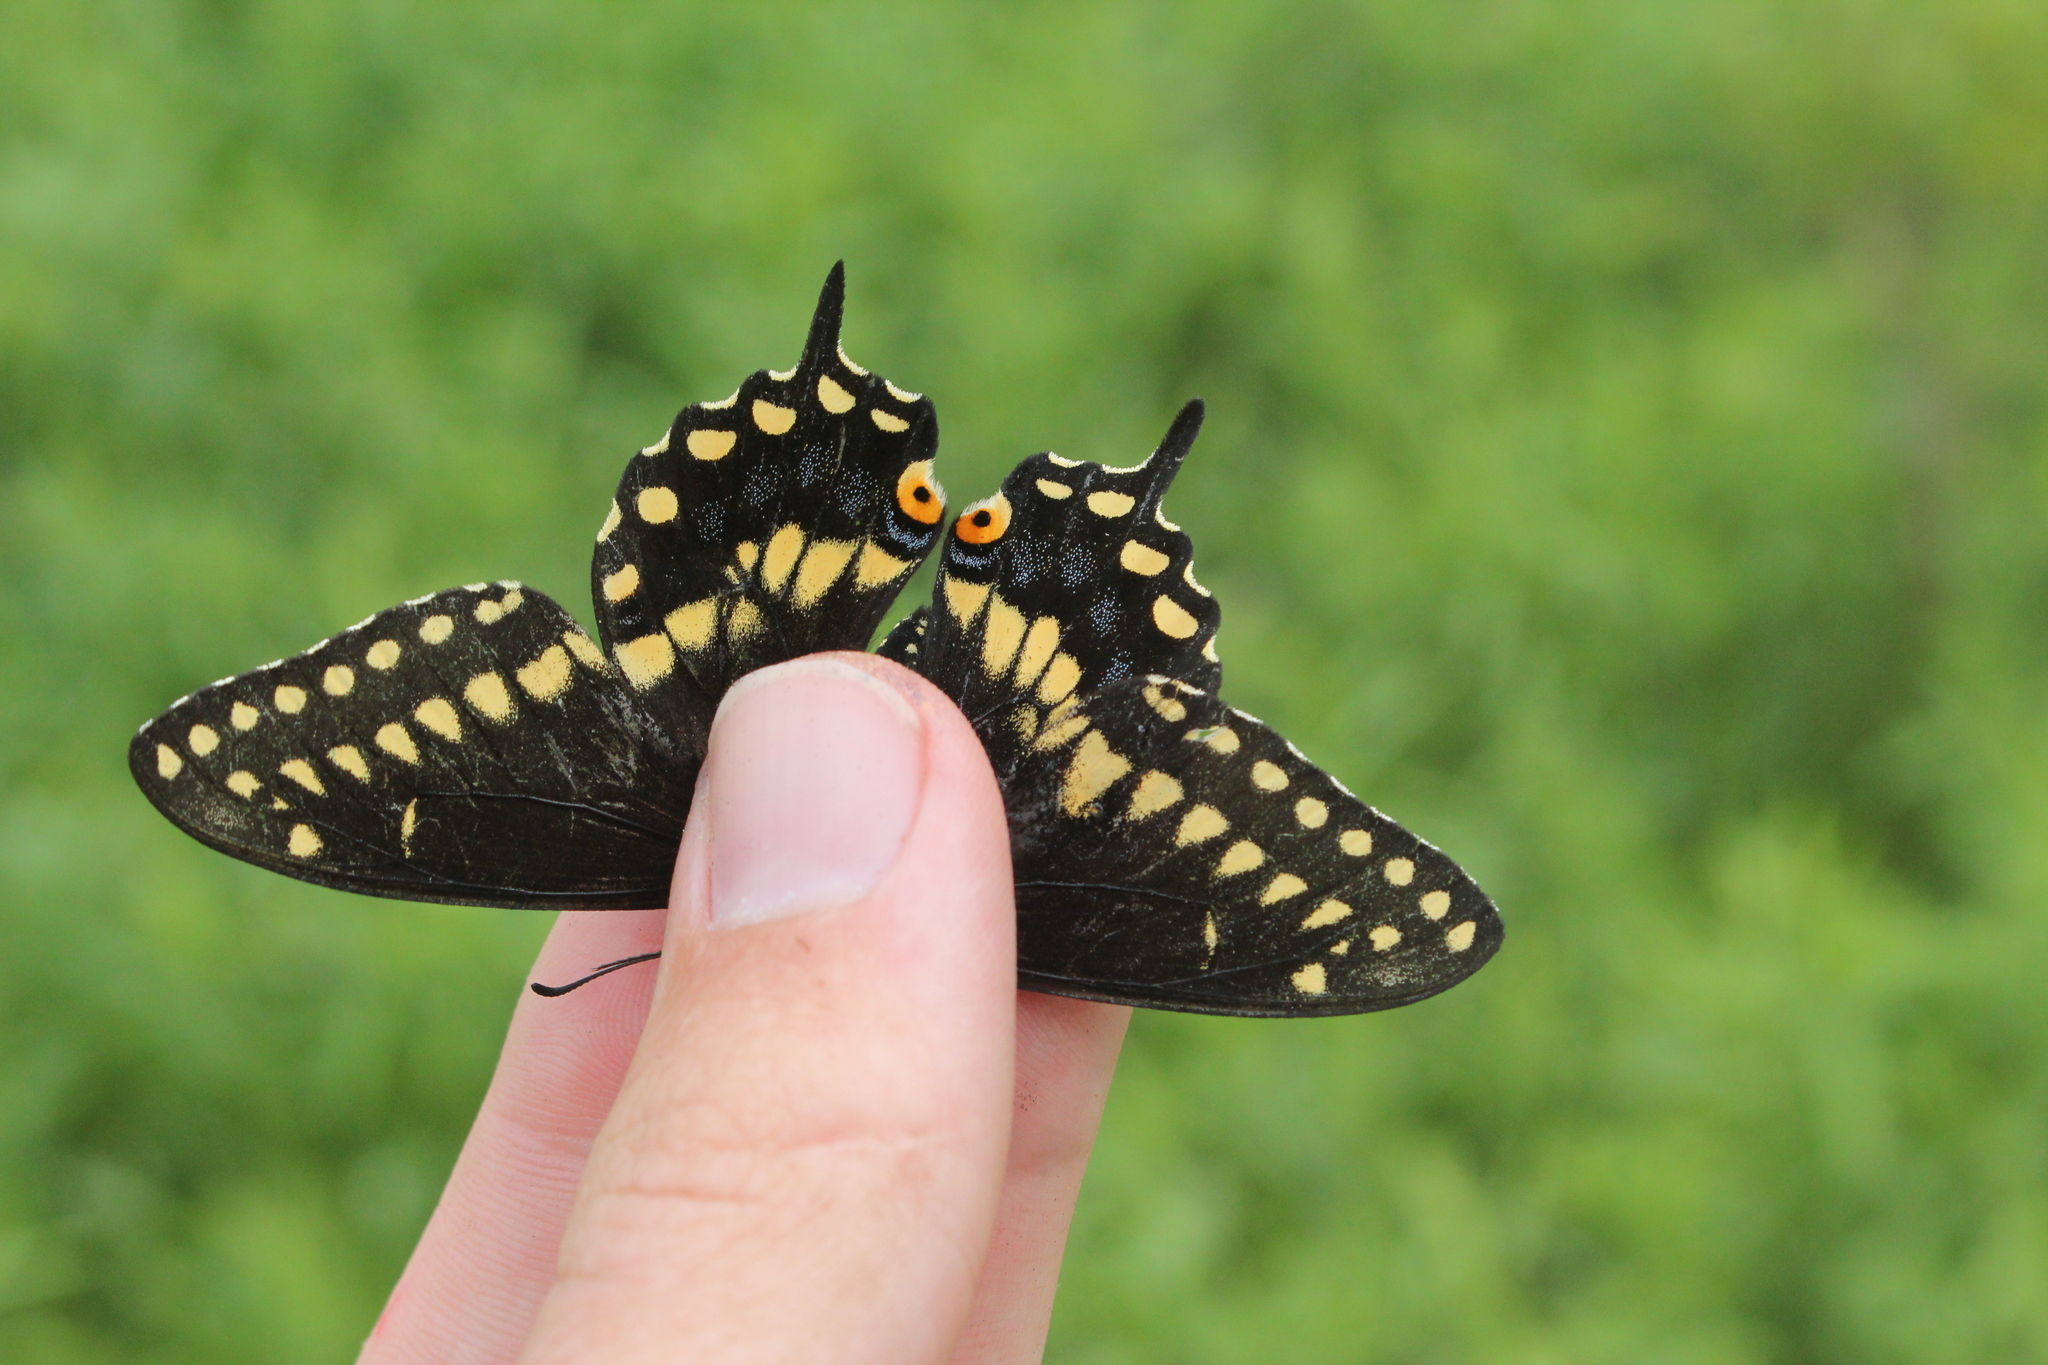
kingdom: Animalia
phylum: Arthropoda
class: Insecta
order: Lepidoptera
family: Papilionidae
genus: Papilio
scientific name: Papilio polyxenes
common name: Black swallowtail
